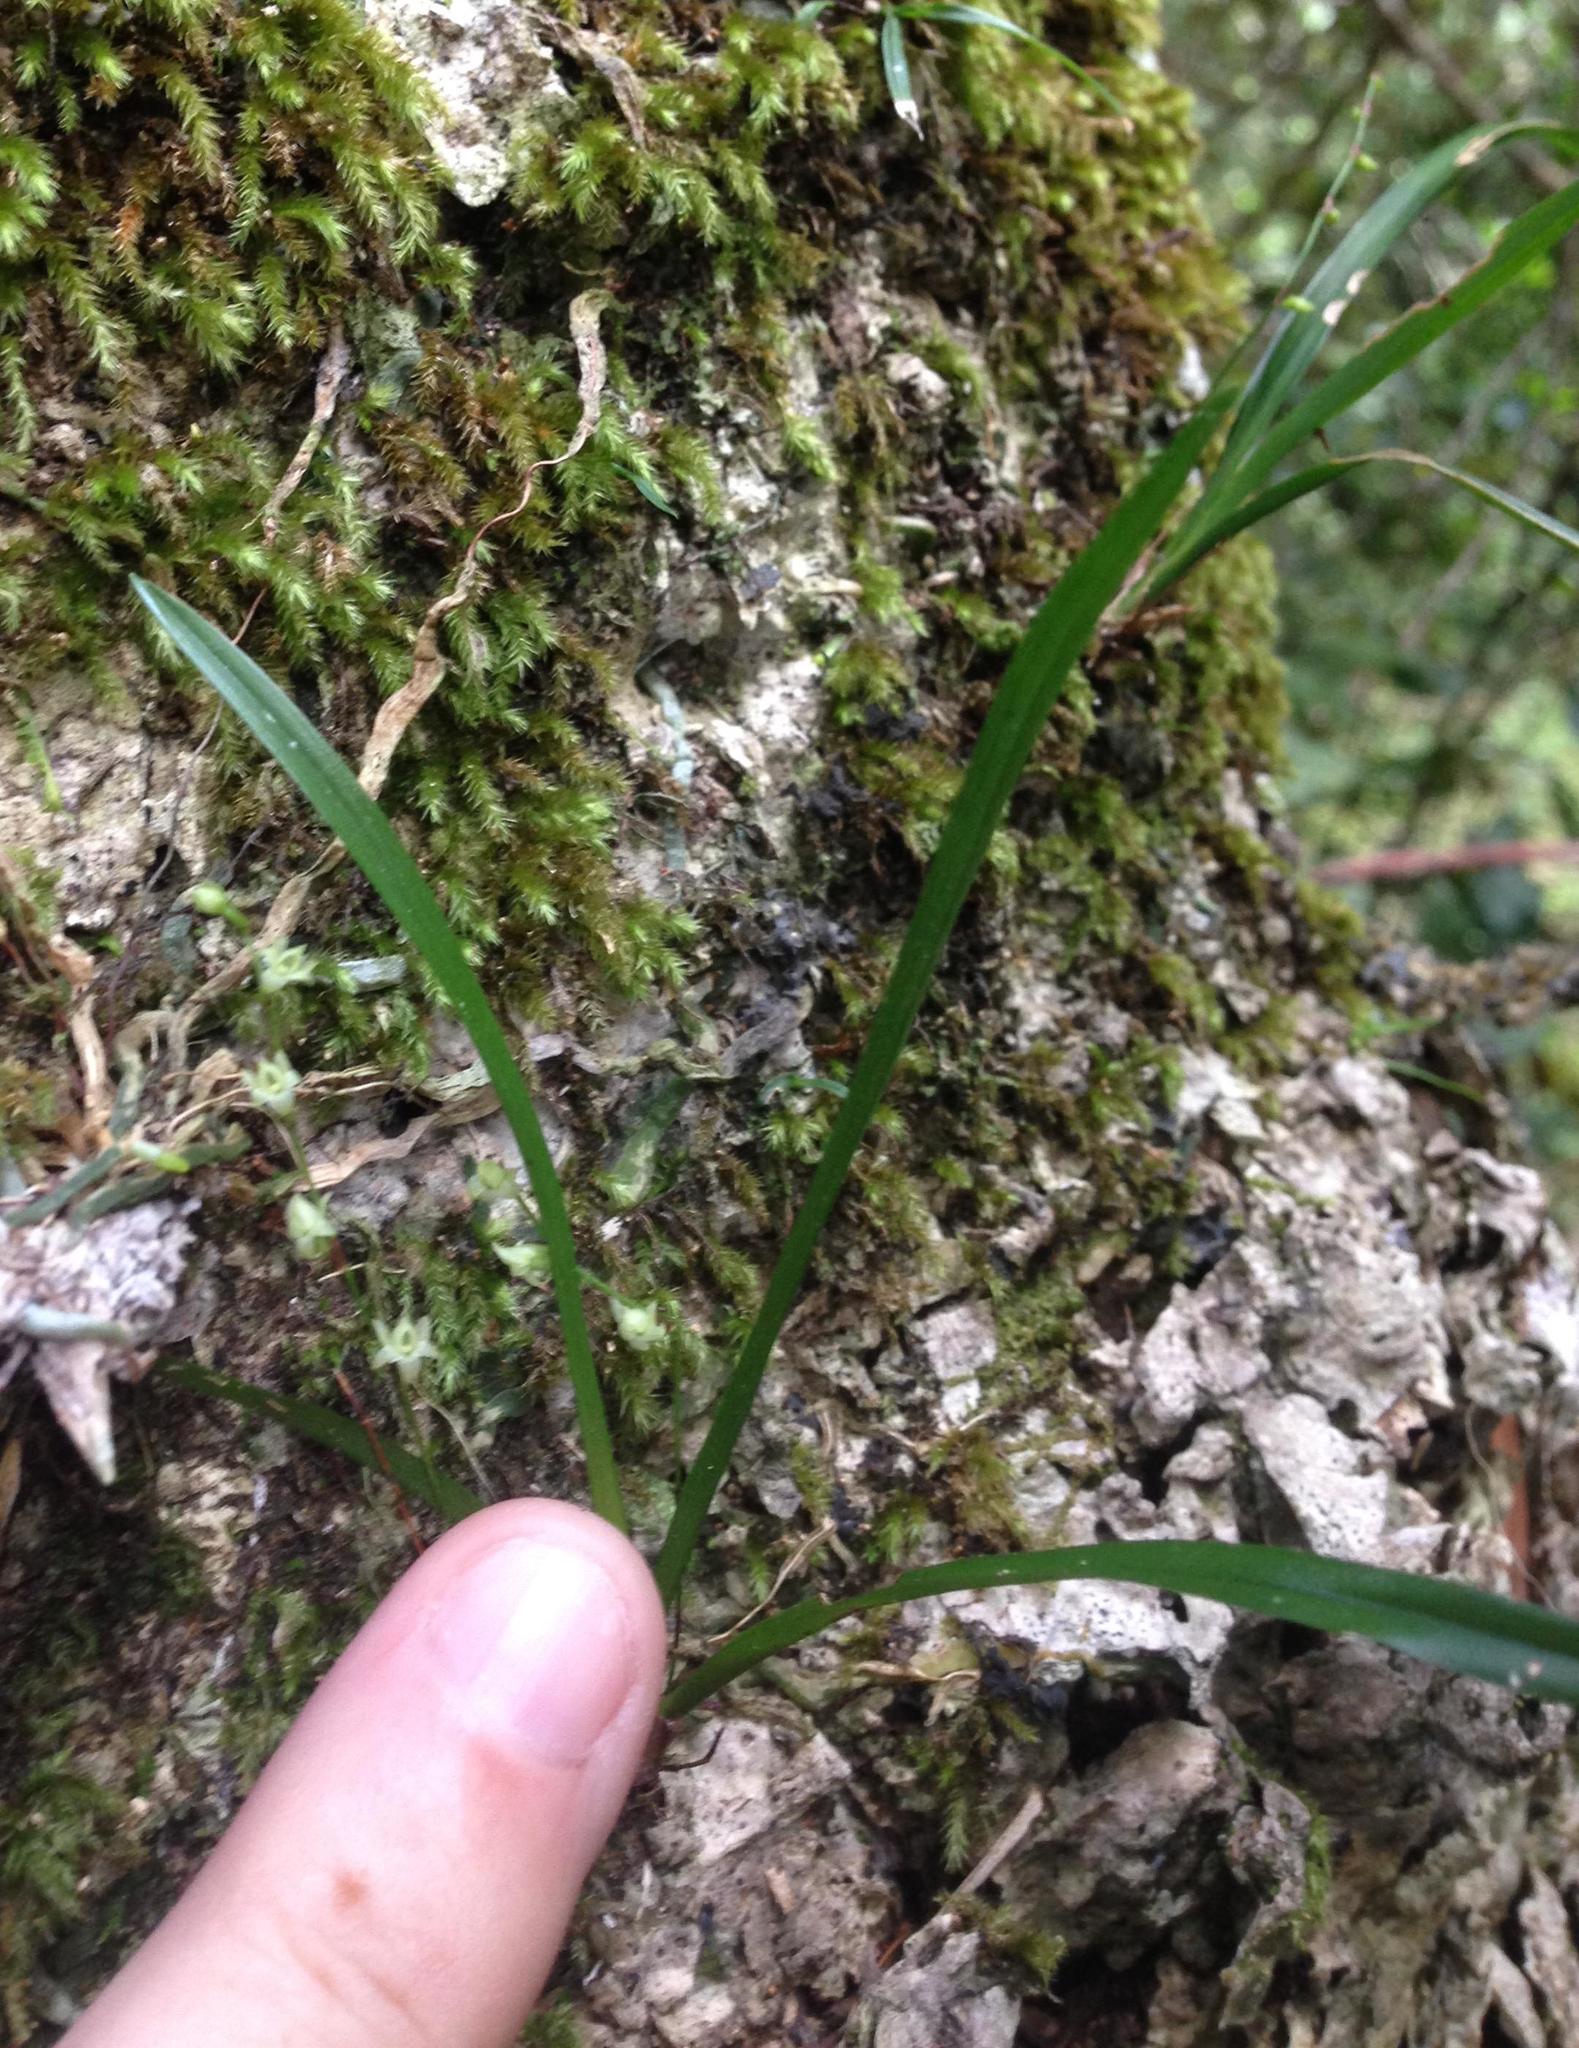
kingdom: Plantae
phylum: Tracheophyta
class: Liliopsida
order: Asparagales
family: Orchidaceae
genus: Angraecum
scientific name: Angraecum pusillum
